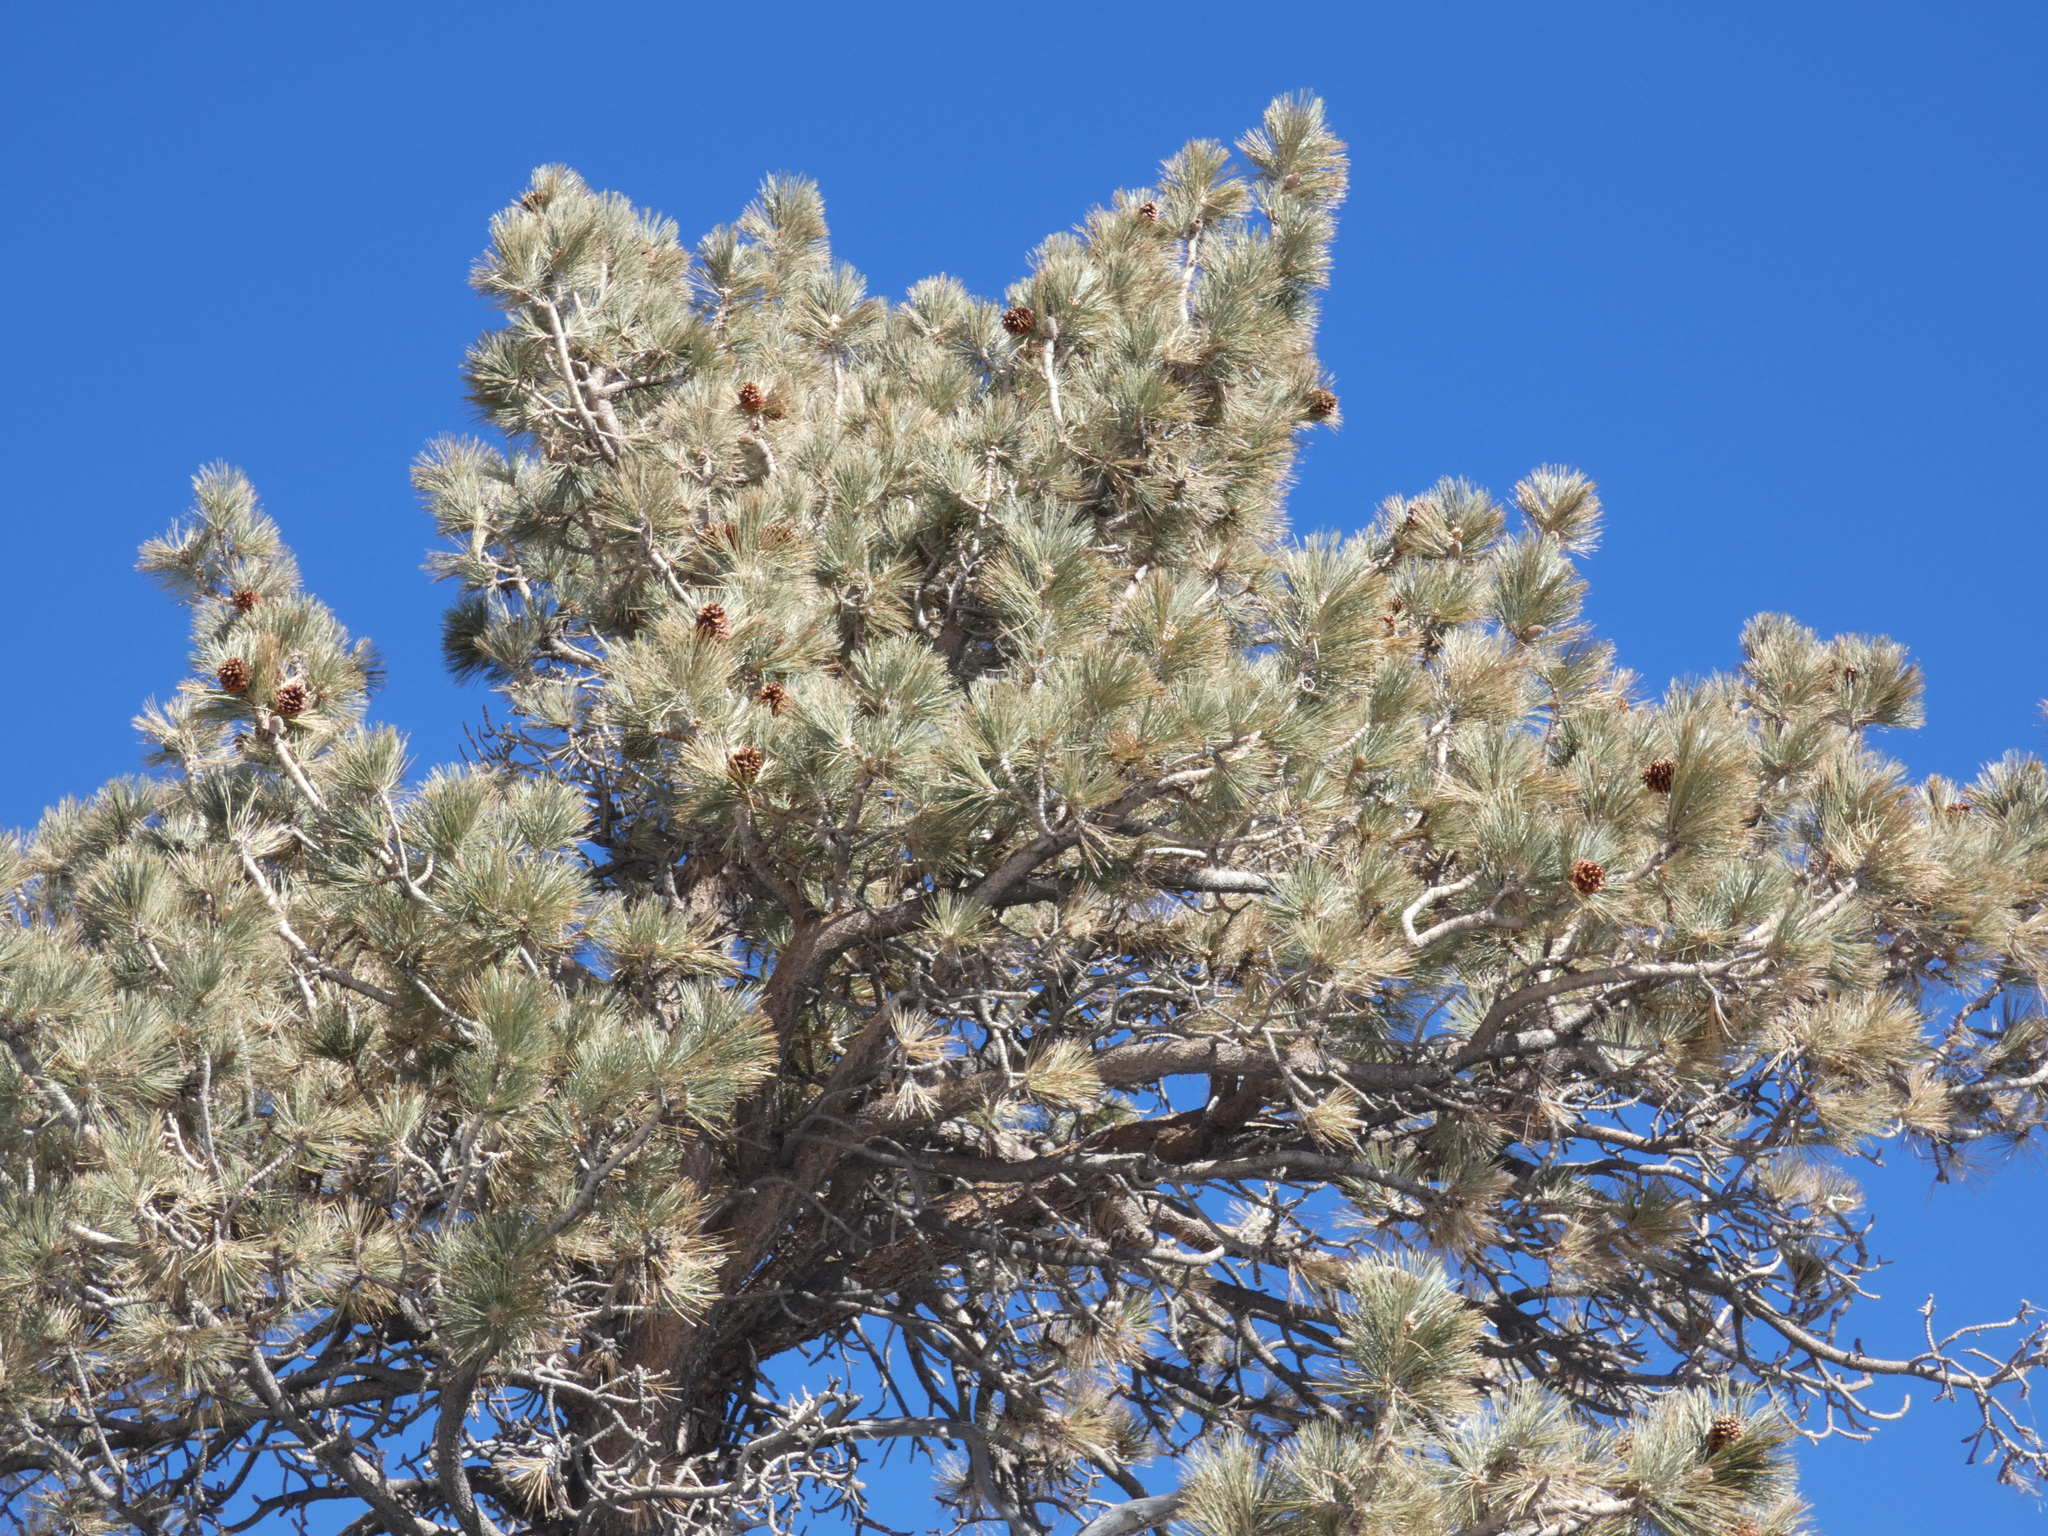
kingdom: Plantae
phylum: Tracheophyta
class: Pinopsida
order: Pinales
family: Pinaceae
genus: Pinus
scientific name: Pinus jeffreyi
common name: Jeffrey pine
